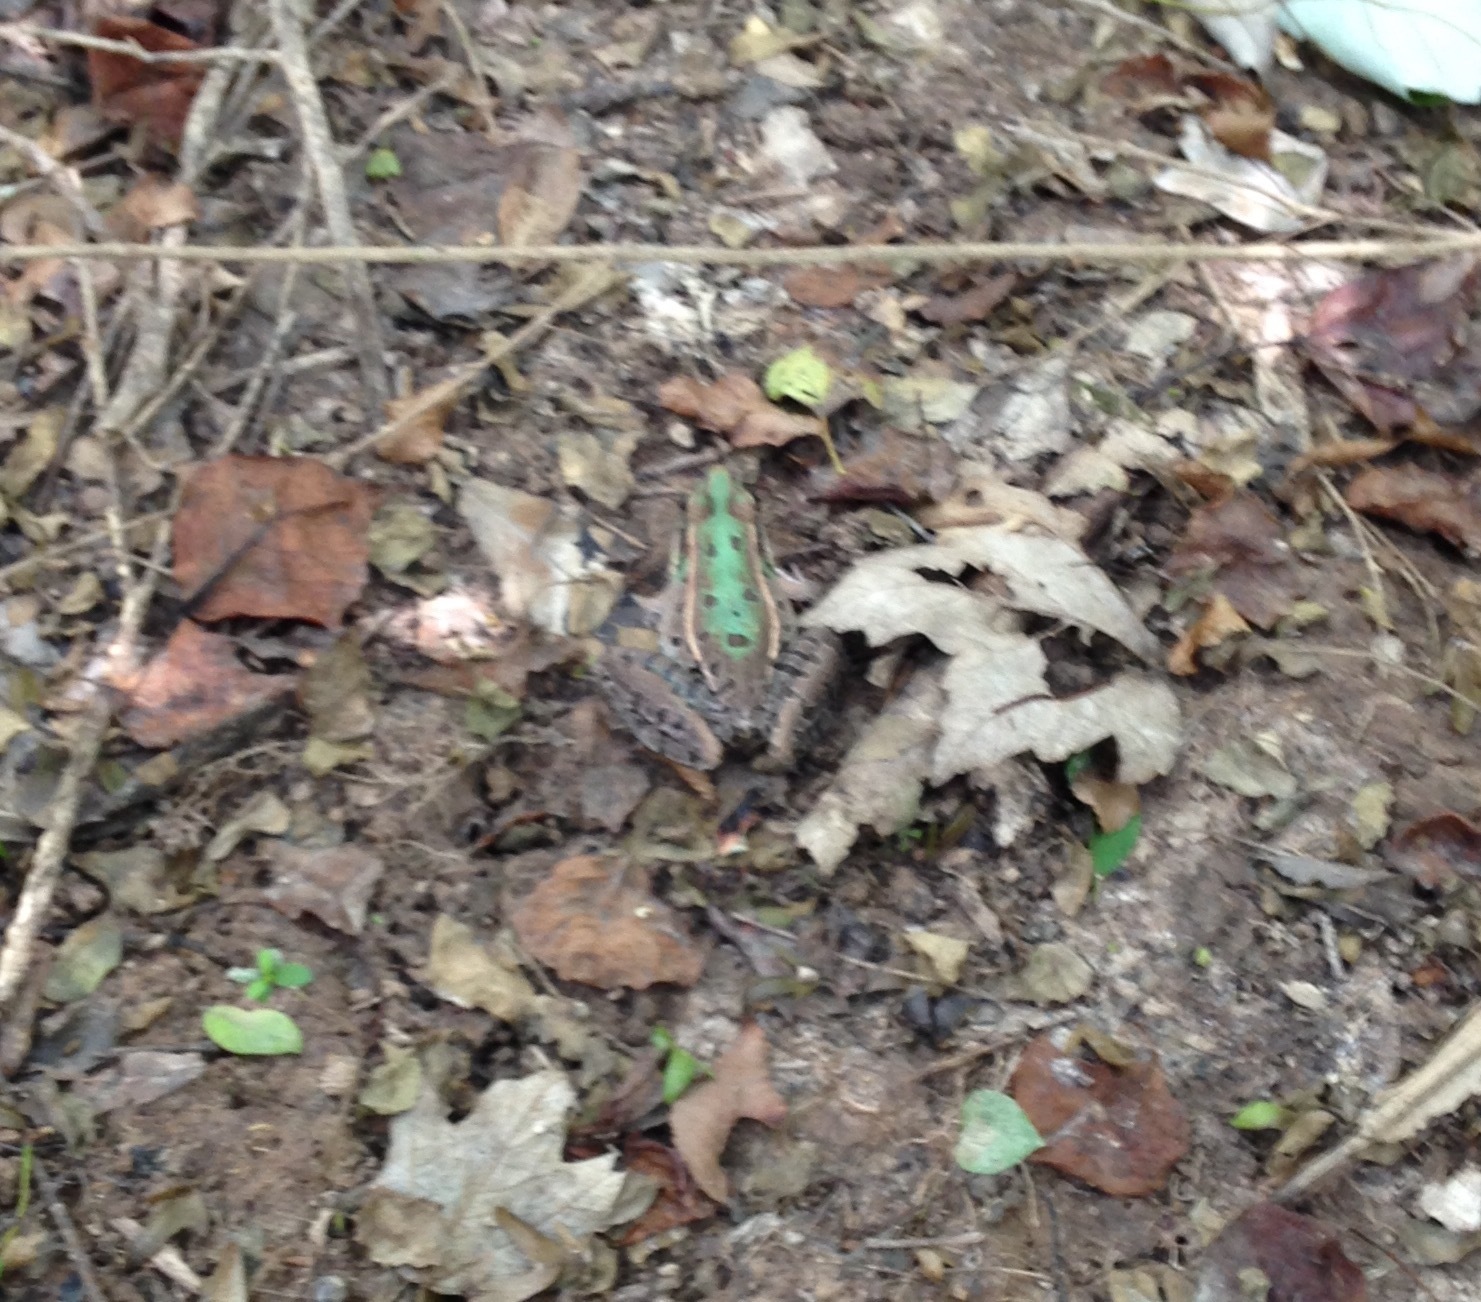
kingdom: Animalia
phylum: Chordata
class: Amphibia
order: Anura
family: Ranidae
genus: Lithobates
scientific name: Lithobates sphenocephalus
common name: Southern leopard frog
